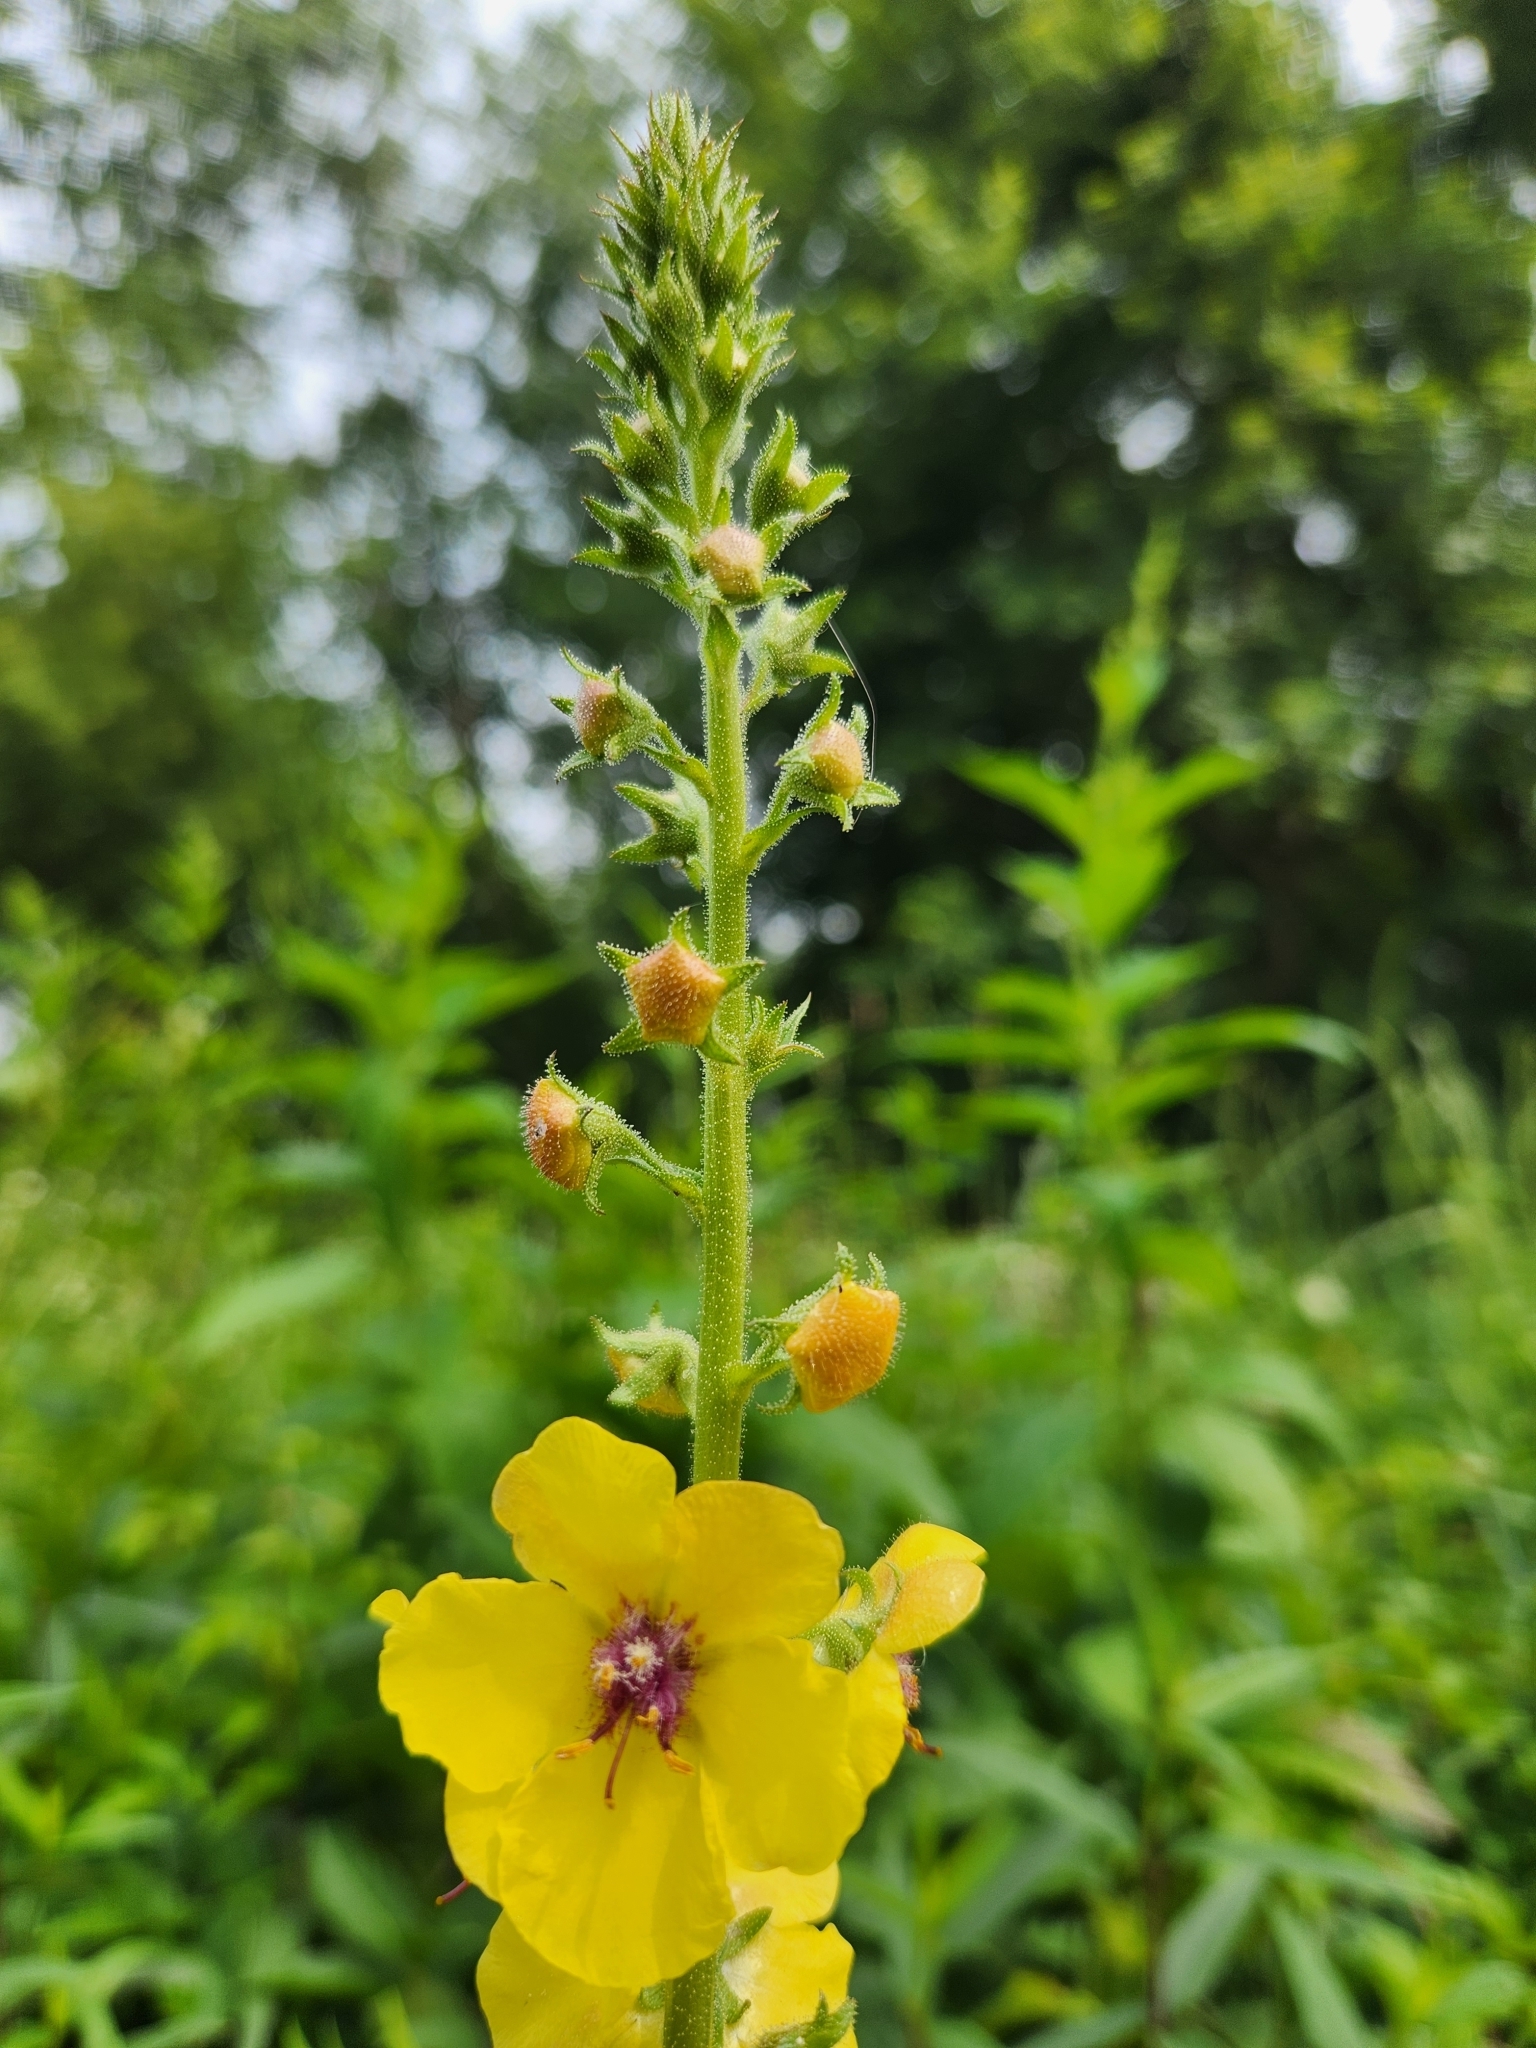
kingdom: Plantae
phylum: Tracheophyta
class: Magnoliopsida
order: Lamiales
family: Scrophulariaceae
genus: Verbascum
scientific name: Verbascum blattaria
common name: Moth mullein
